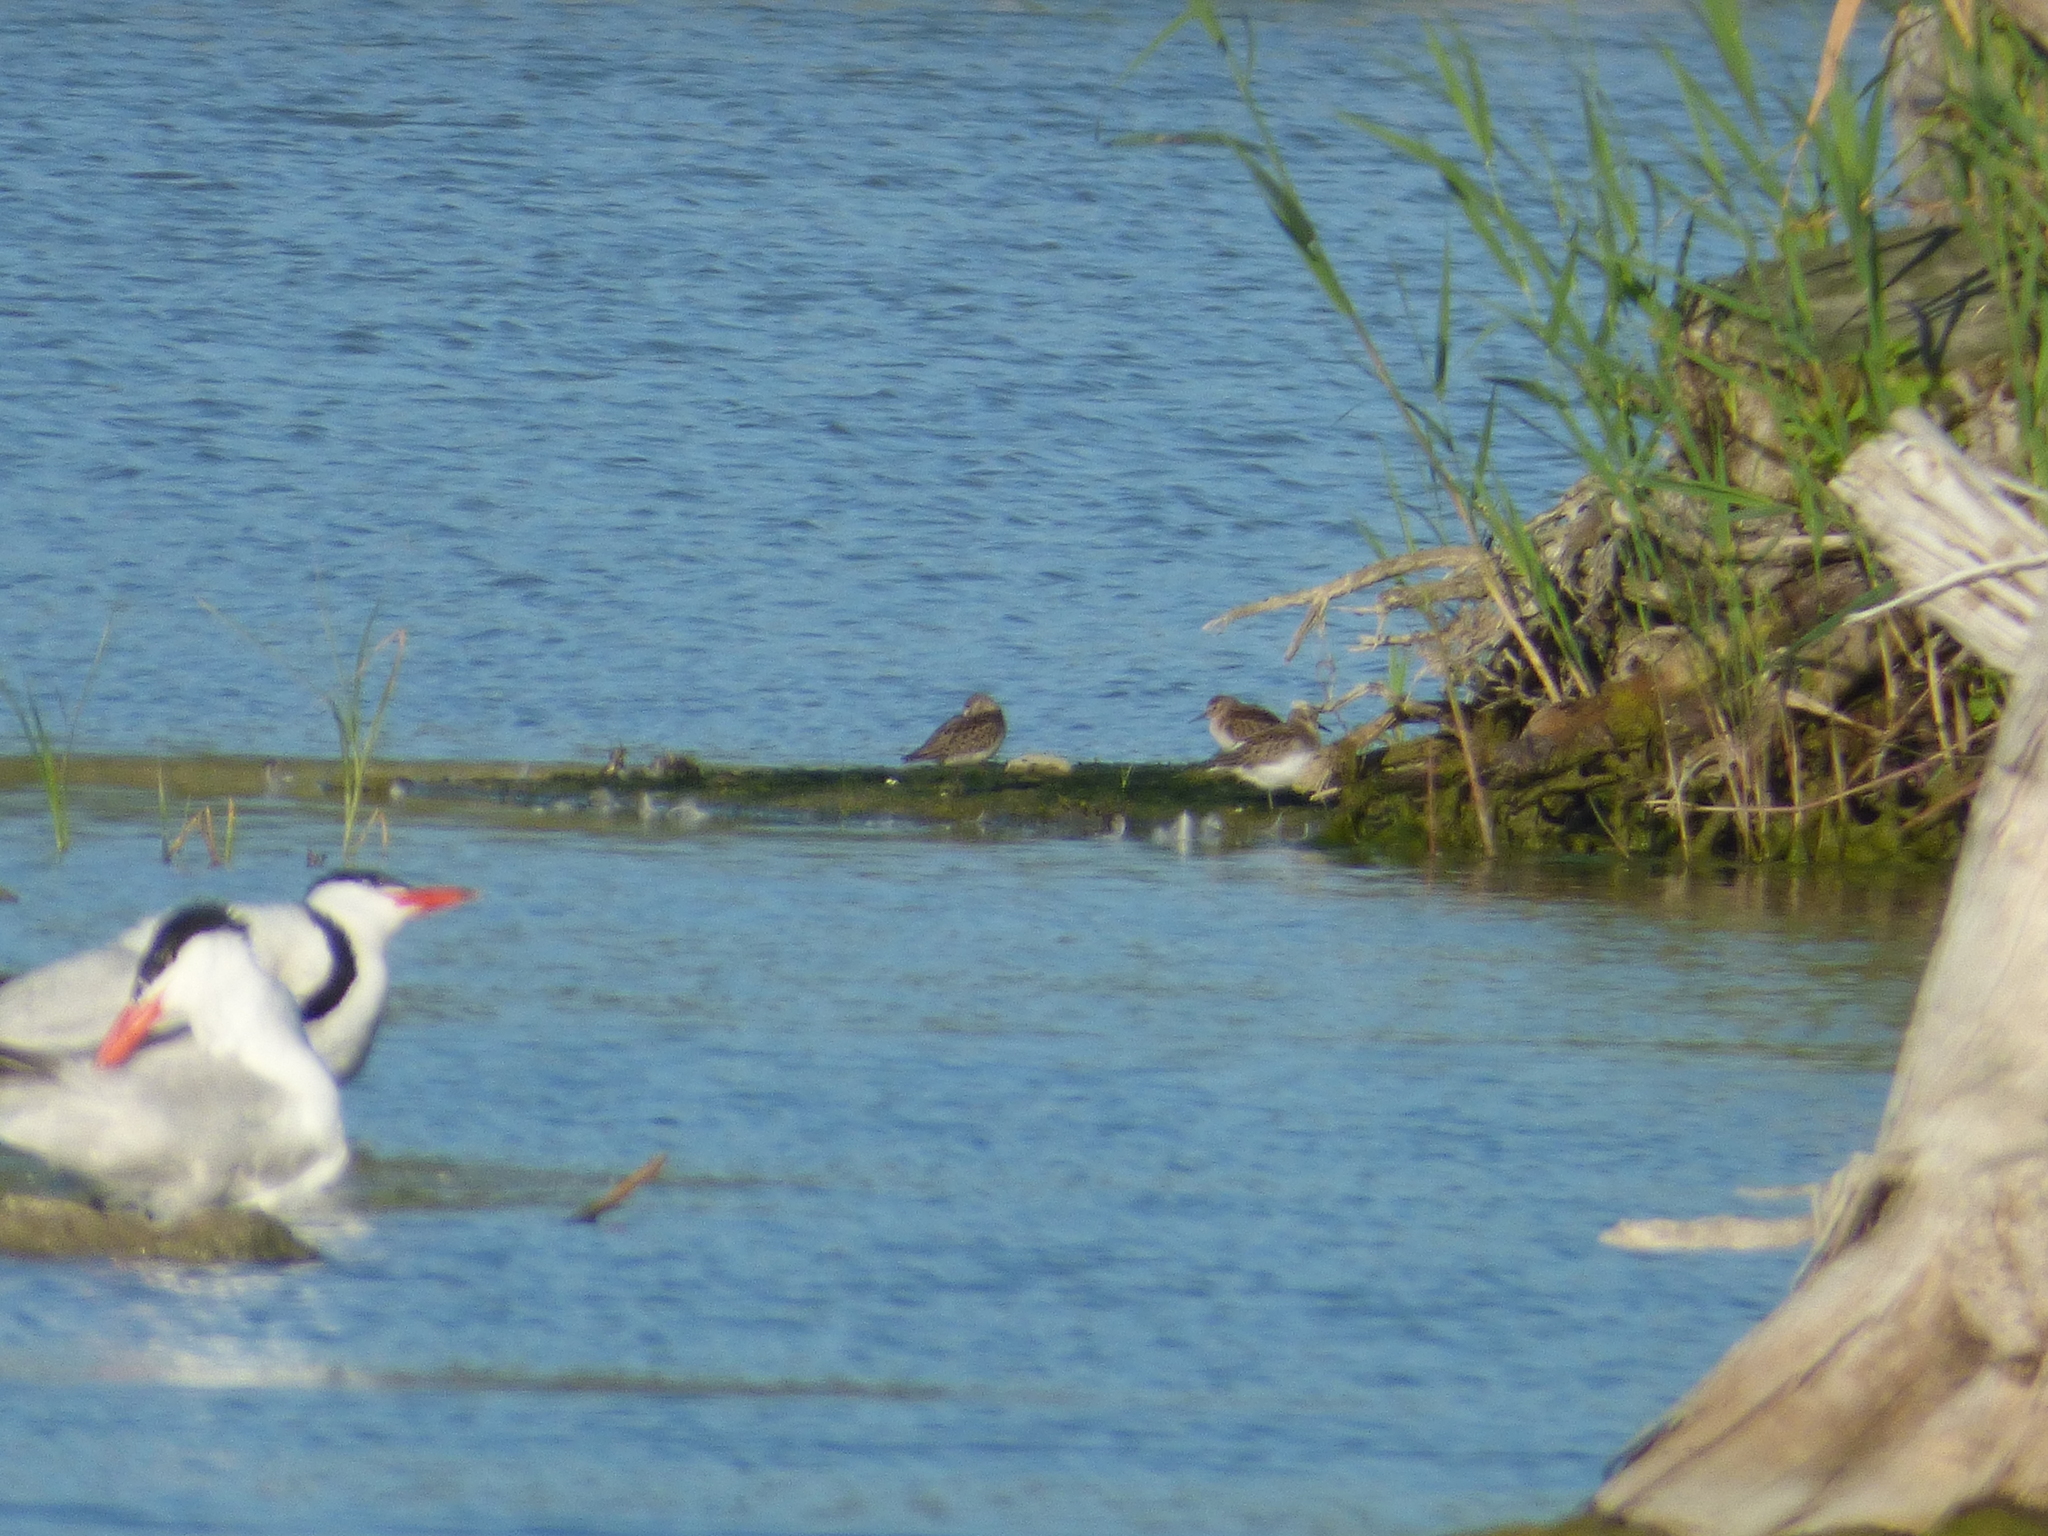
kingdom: Animalia
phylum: Chordata
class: Aves
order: Charadriiformes
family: Scolopacidae
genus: Calidris
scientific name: Calidris pusilla
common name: Semipalmated sandpiper
